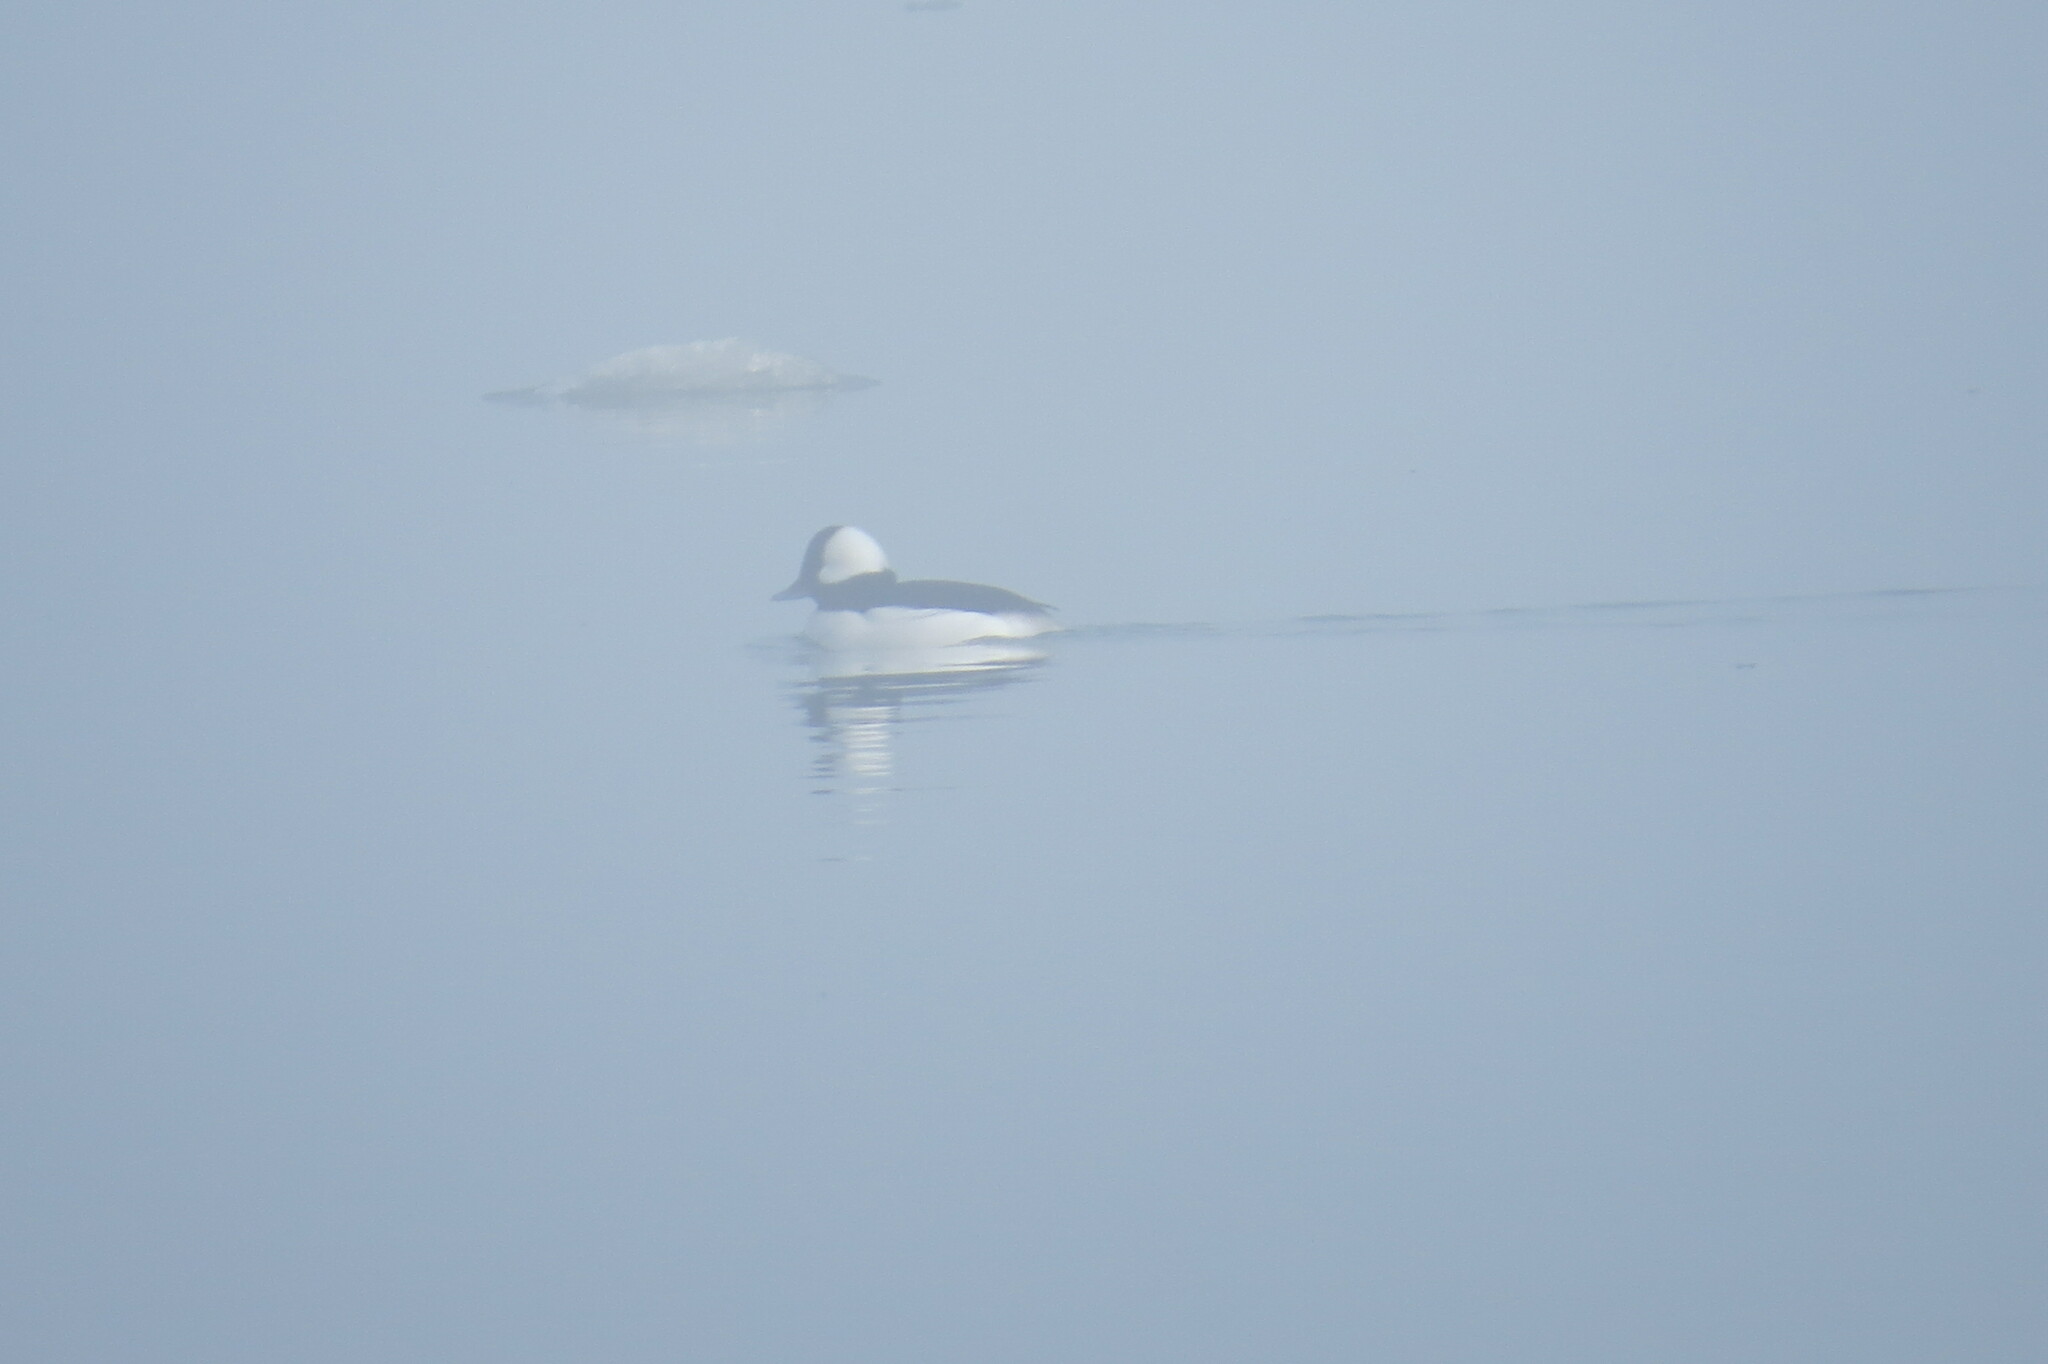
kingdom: Animalia
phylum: Chordata
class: Aves
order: Anseriformes
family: Anatidae
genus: Bucephala
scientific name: Bucephala albeola
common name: Bufflehead
